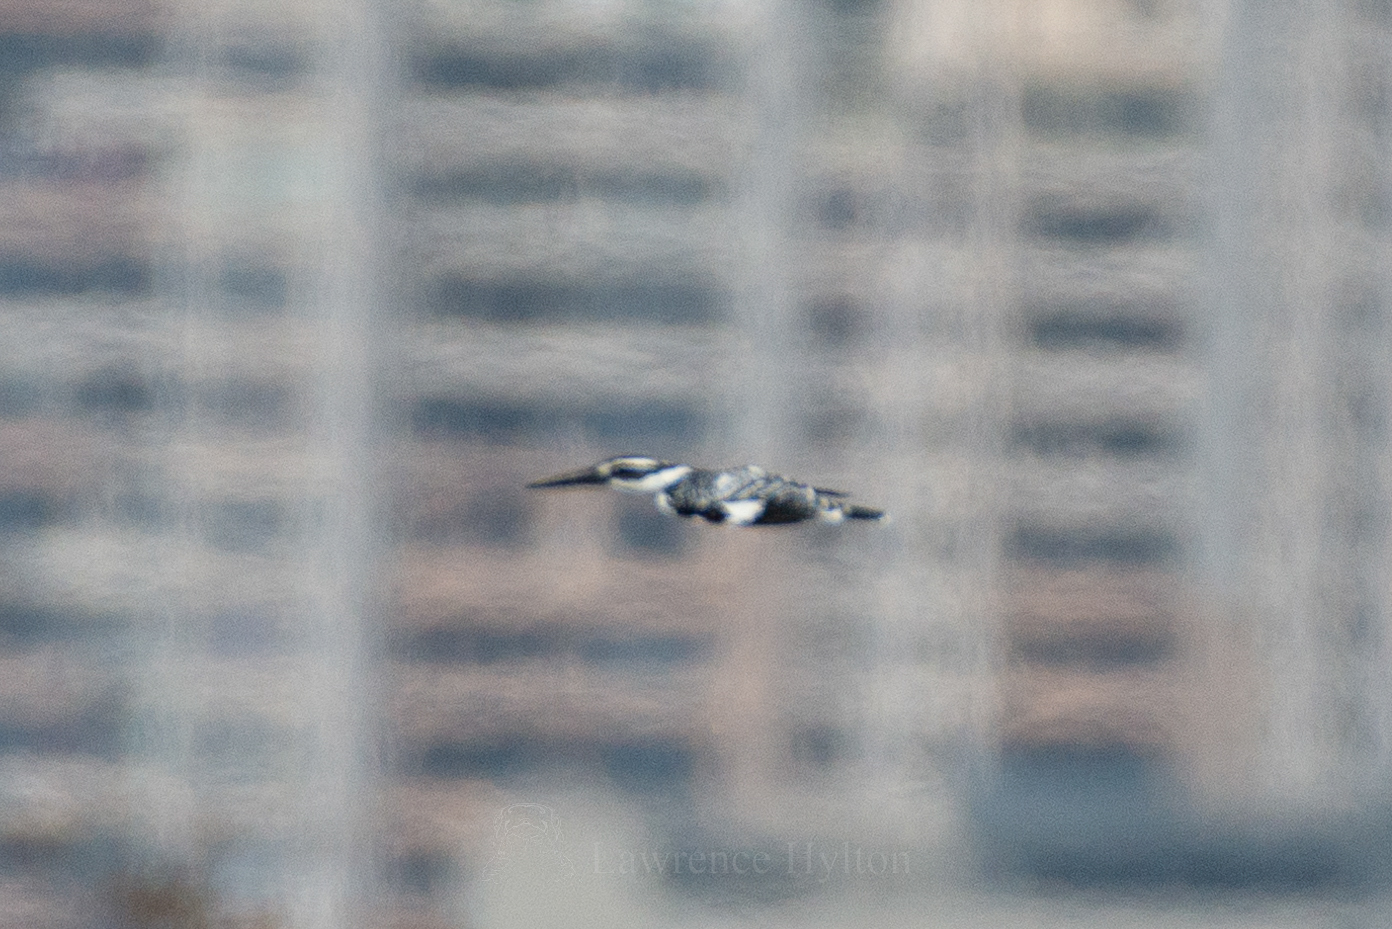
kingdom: Animalia
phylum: Chordata
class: Aves
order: Coraciiformes
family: Alcedinidae
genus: Ceryle
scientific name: Ceryle rudis
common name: Pied kingfisher
